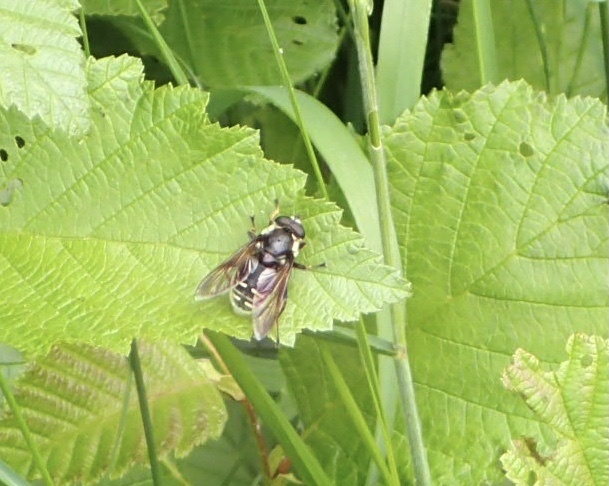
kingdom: Animalia
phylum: Arthropoda
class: Insecta
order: Diptera
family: Syrphidae
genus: Sericomyia
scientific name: Sericomyia militaris
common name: Narrow-banded pond fly
